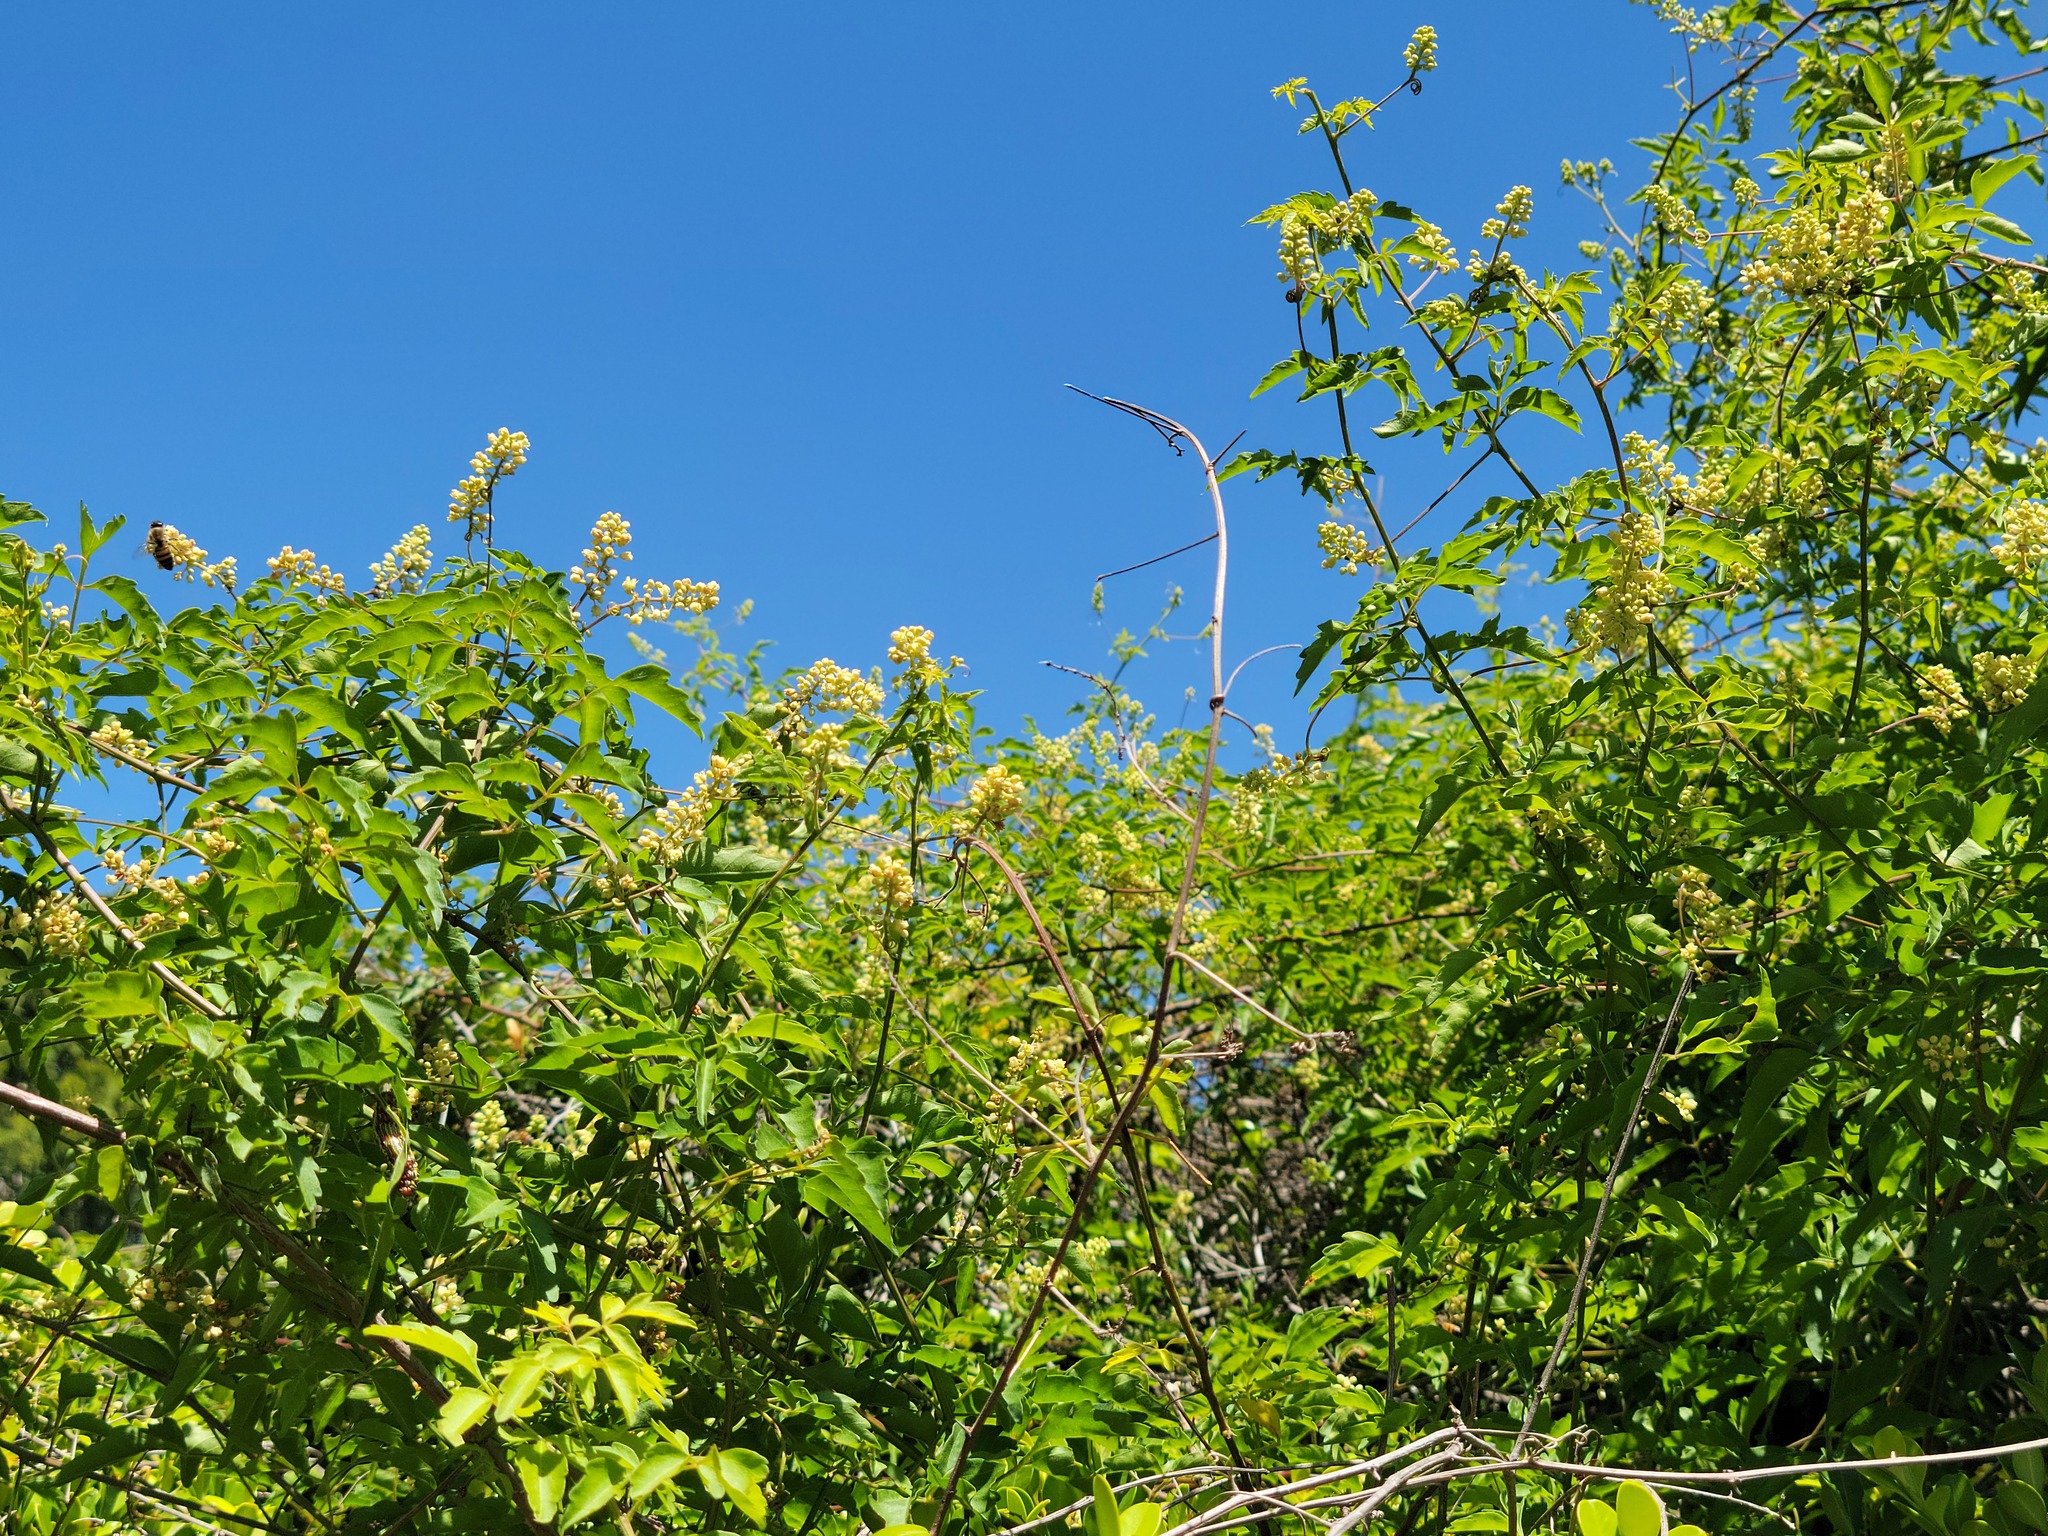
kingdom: Plantae
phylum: Tracheophyta
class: Magnoliopsida
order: Sapindales
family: Sapindaceae
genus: Serjania
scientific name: Serjania brachycarpa
